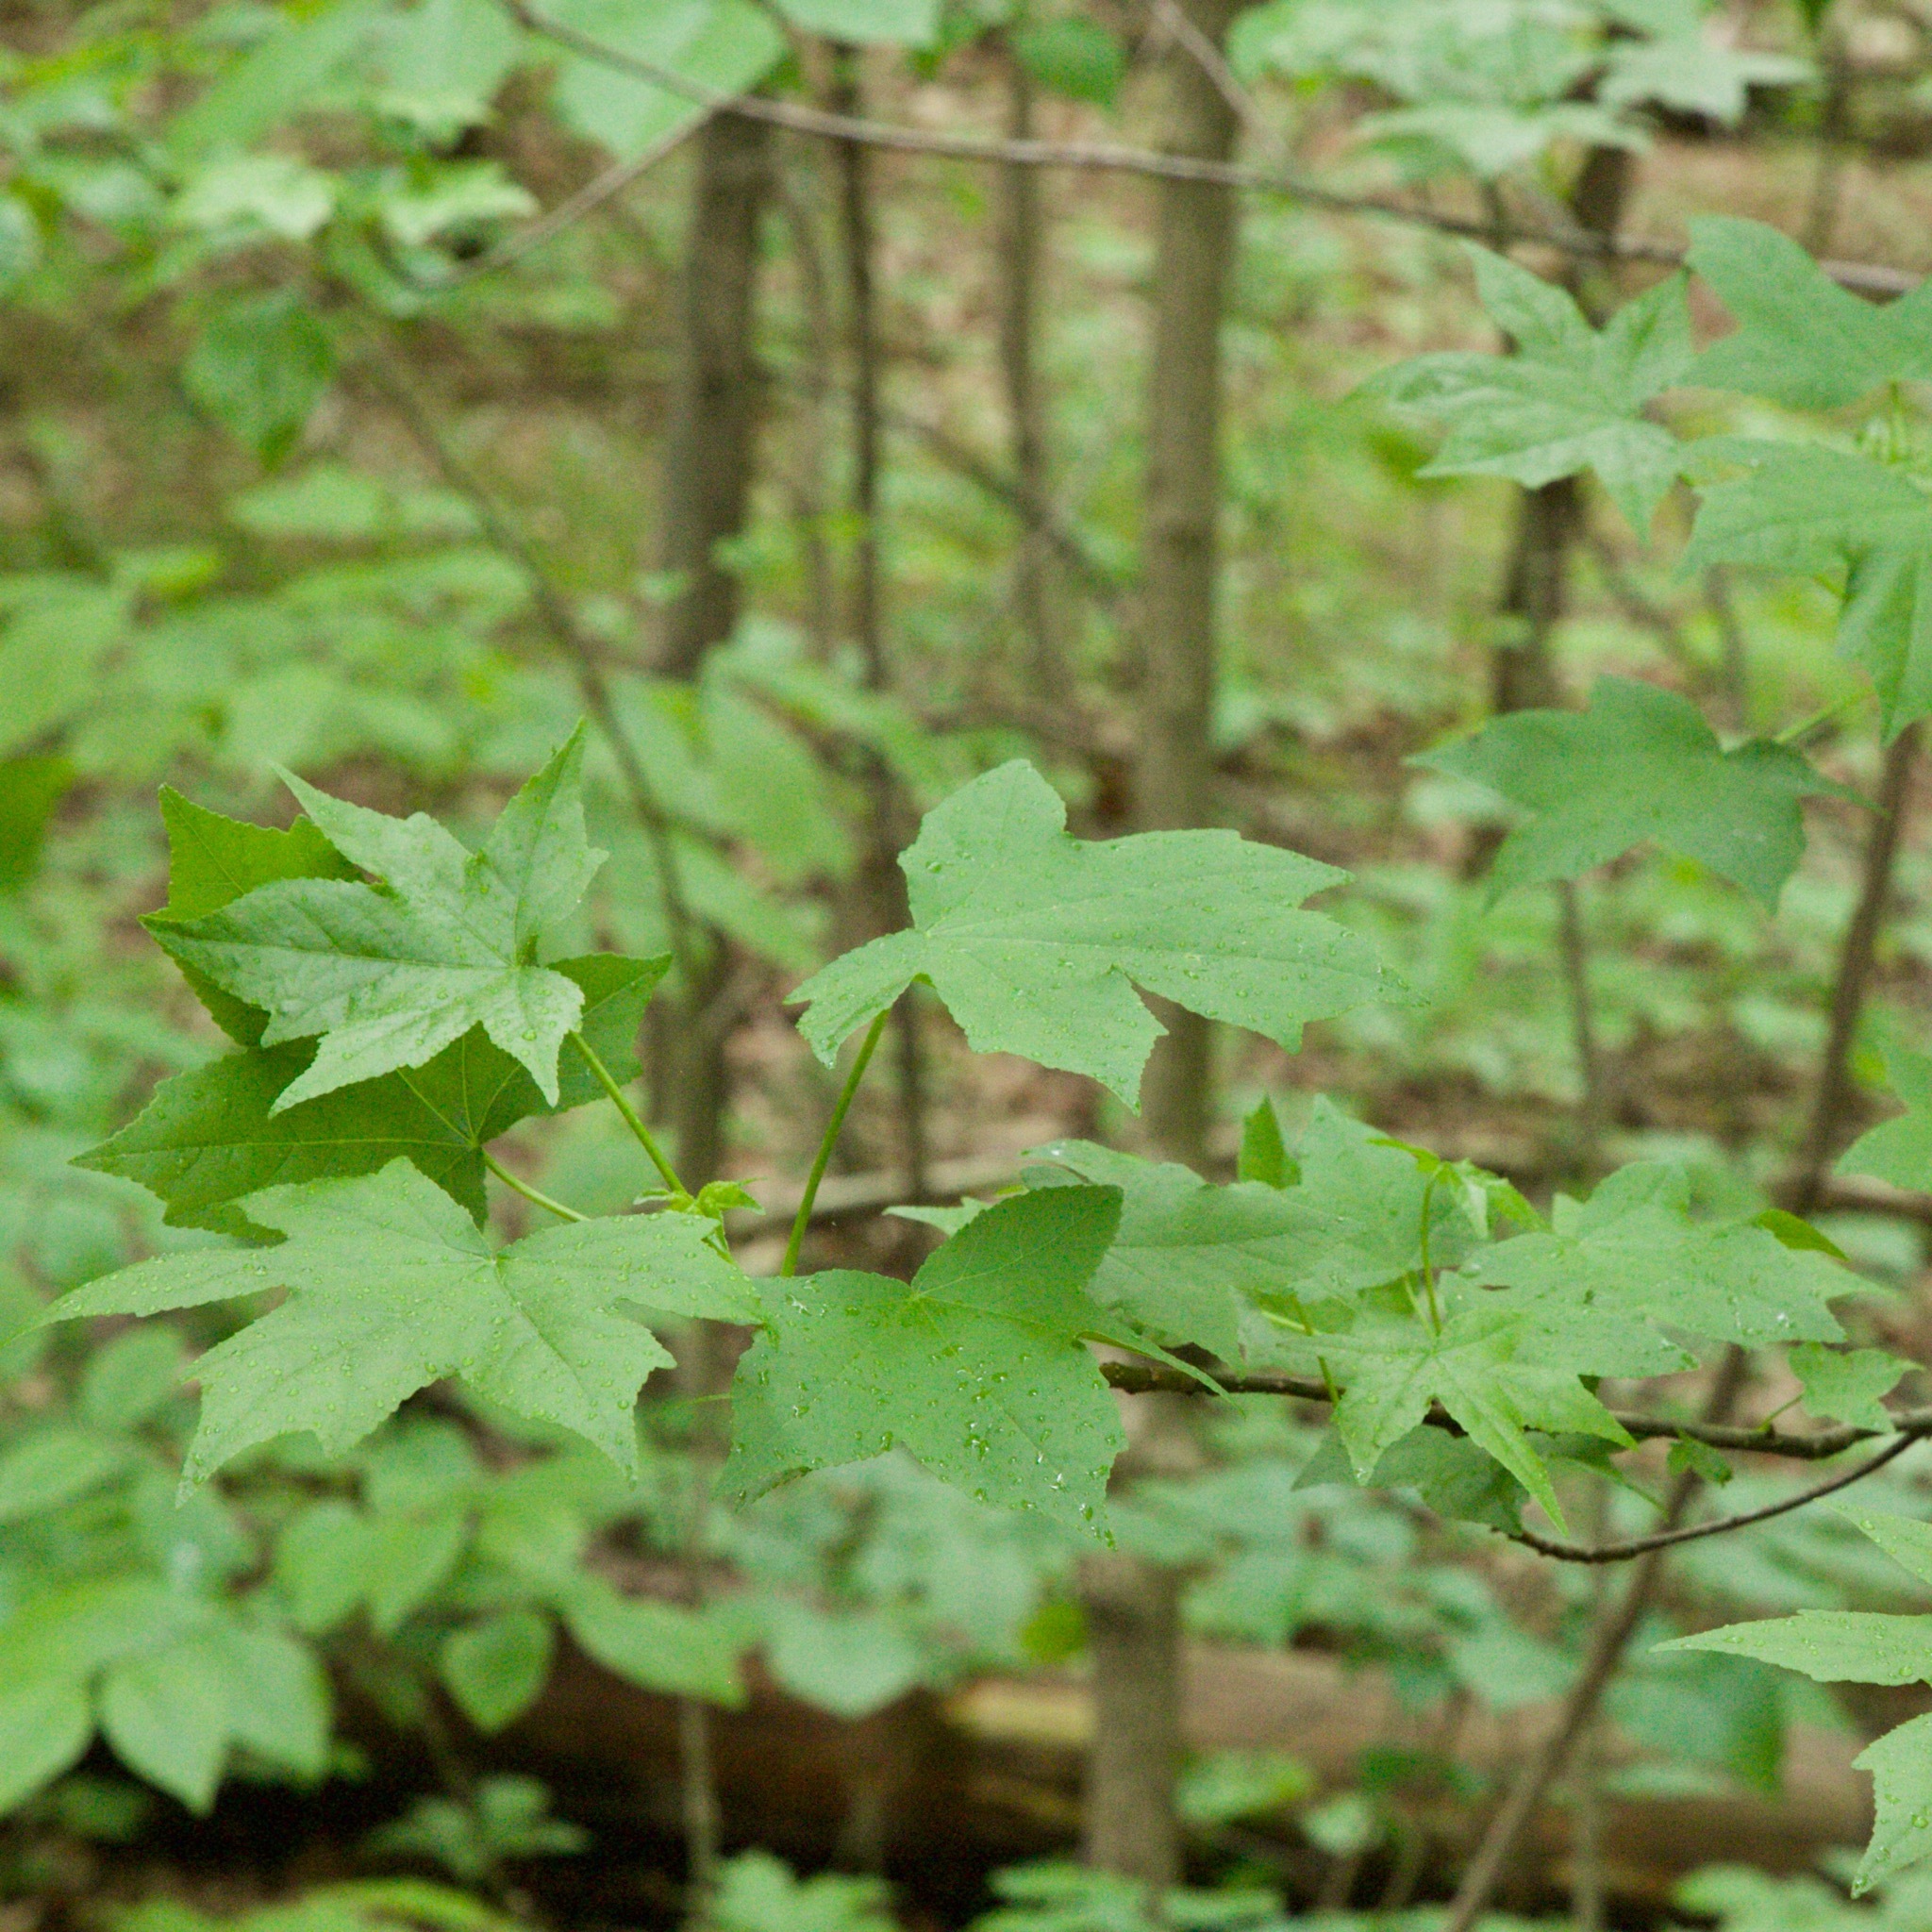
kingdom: Plantae
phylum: Tracheophyta
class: Magnoliopsida
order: Saxifragales
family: Altingiaceae
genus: Liquidambar
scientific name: Liquidambar styraciflua
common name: Sweet gum
